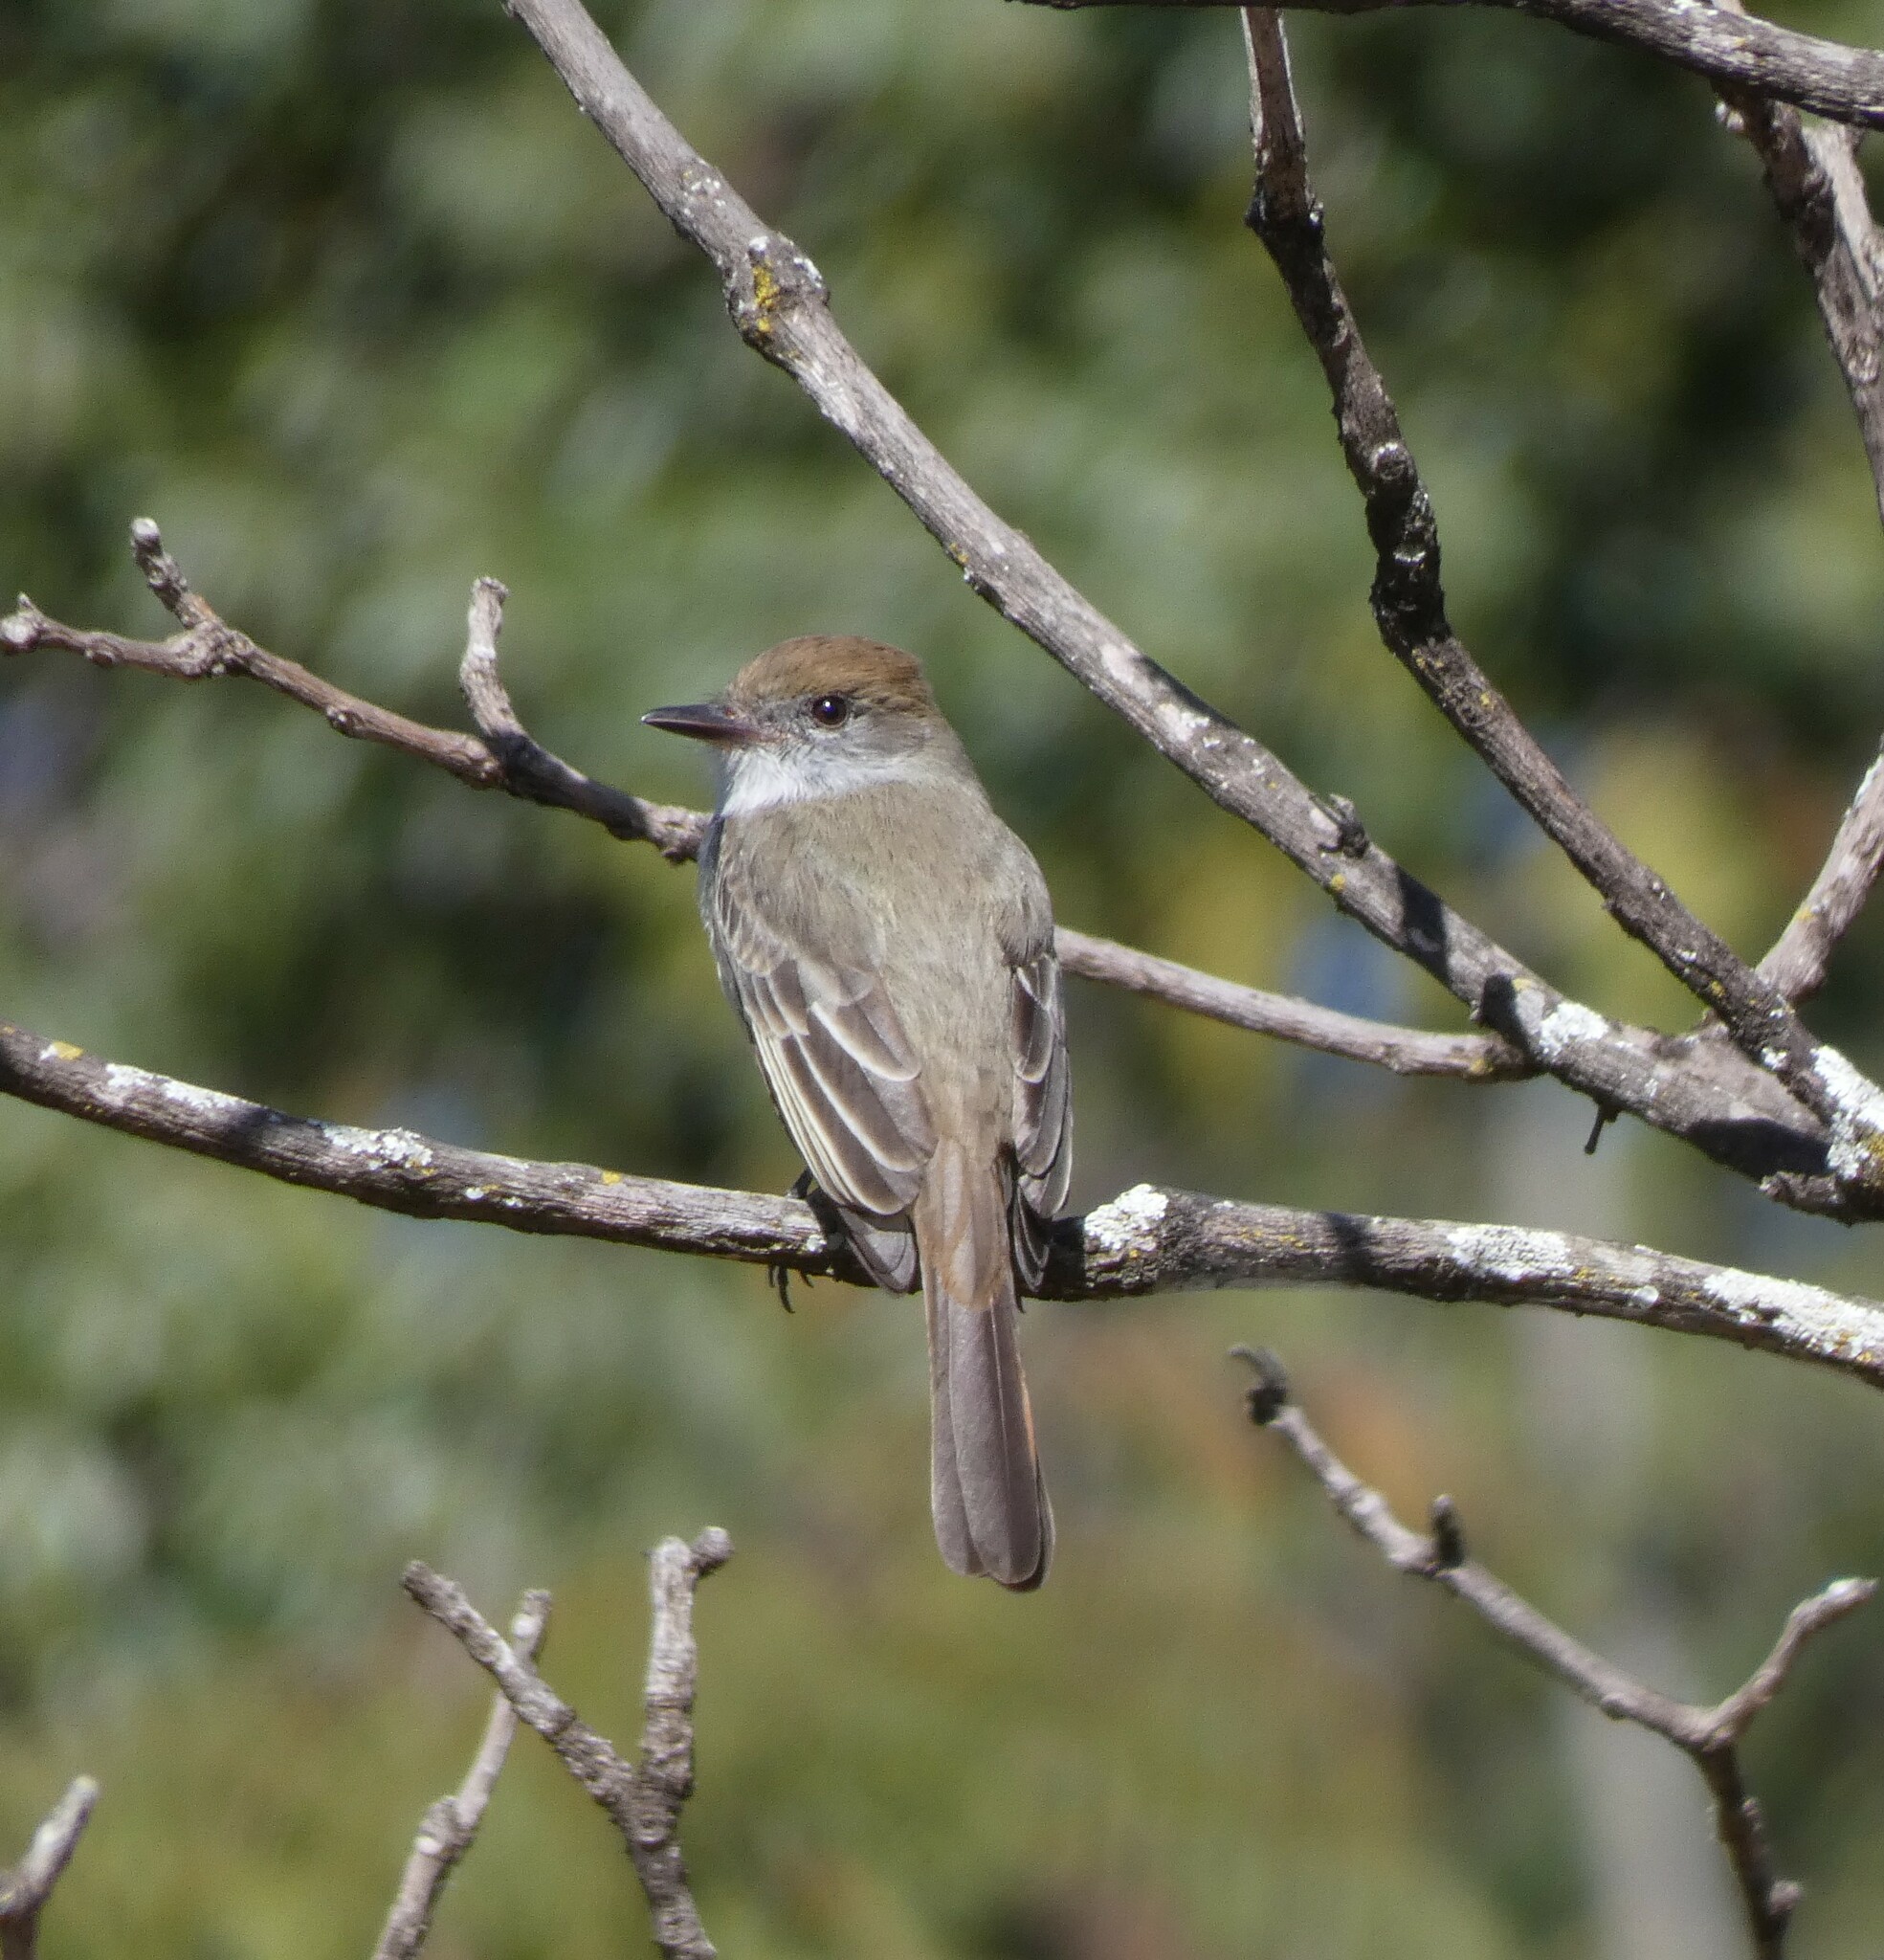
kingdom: Animalia
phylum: Chordata
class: Aves
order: Passeriformes
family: Tyrannidae
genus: Myiarchus
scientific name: Myiarchus swainsoni
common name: Swainson's flycatcher
